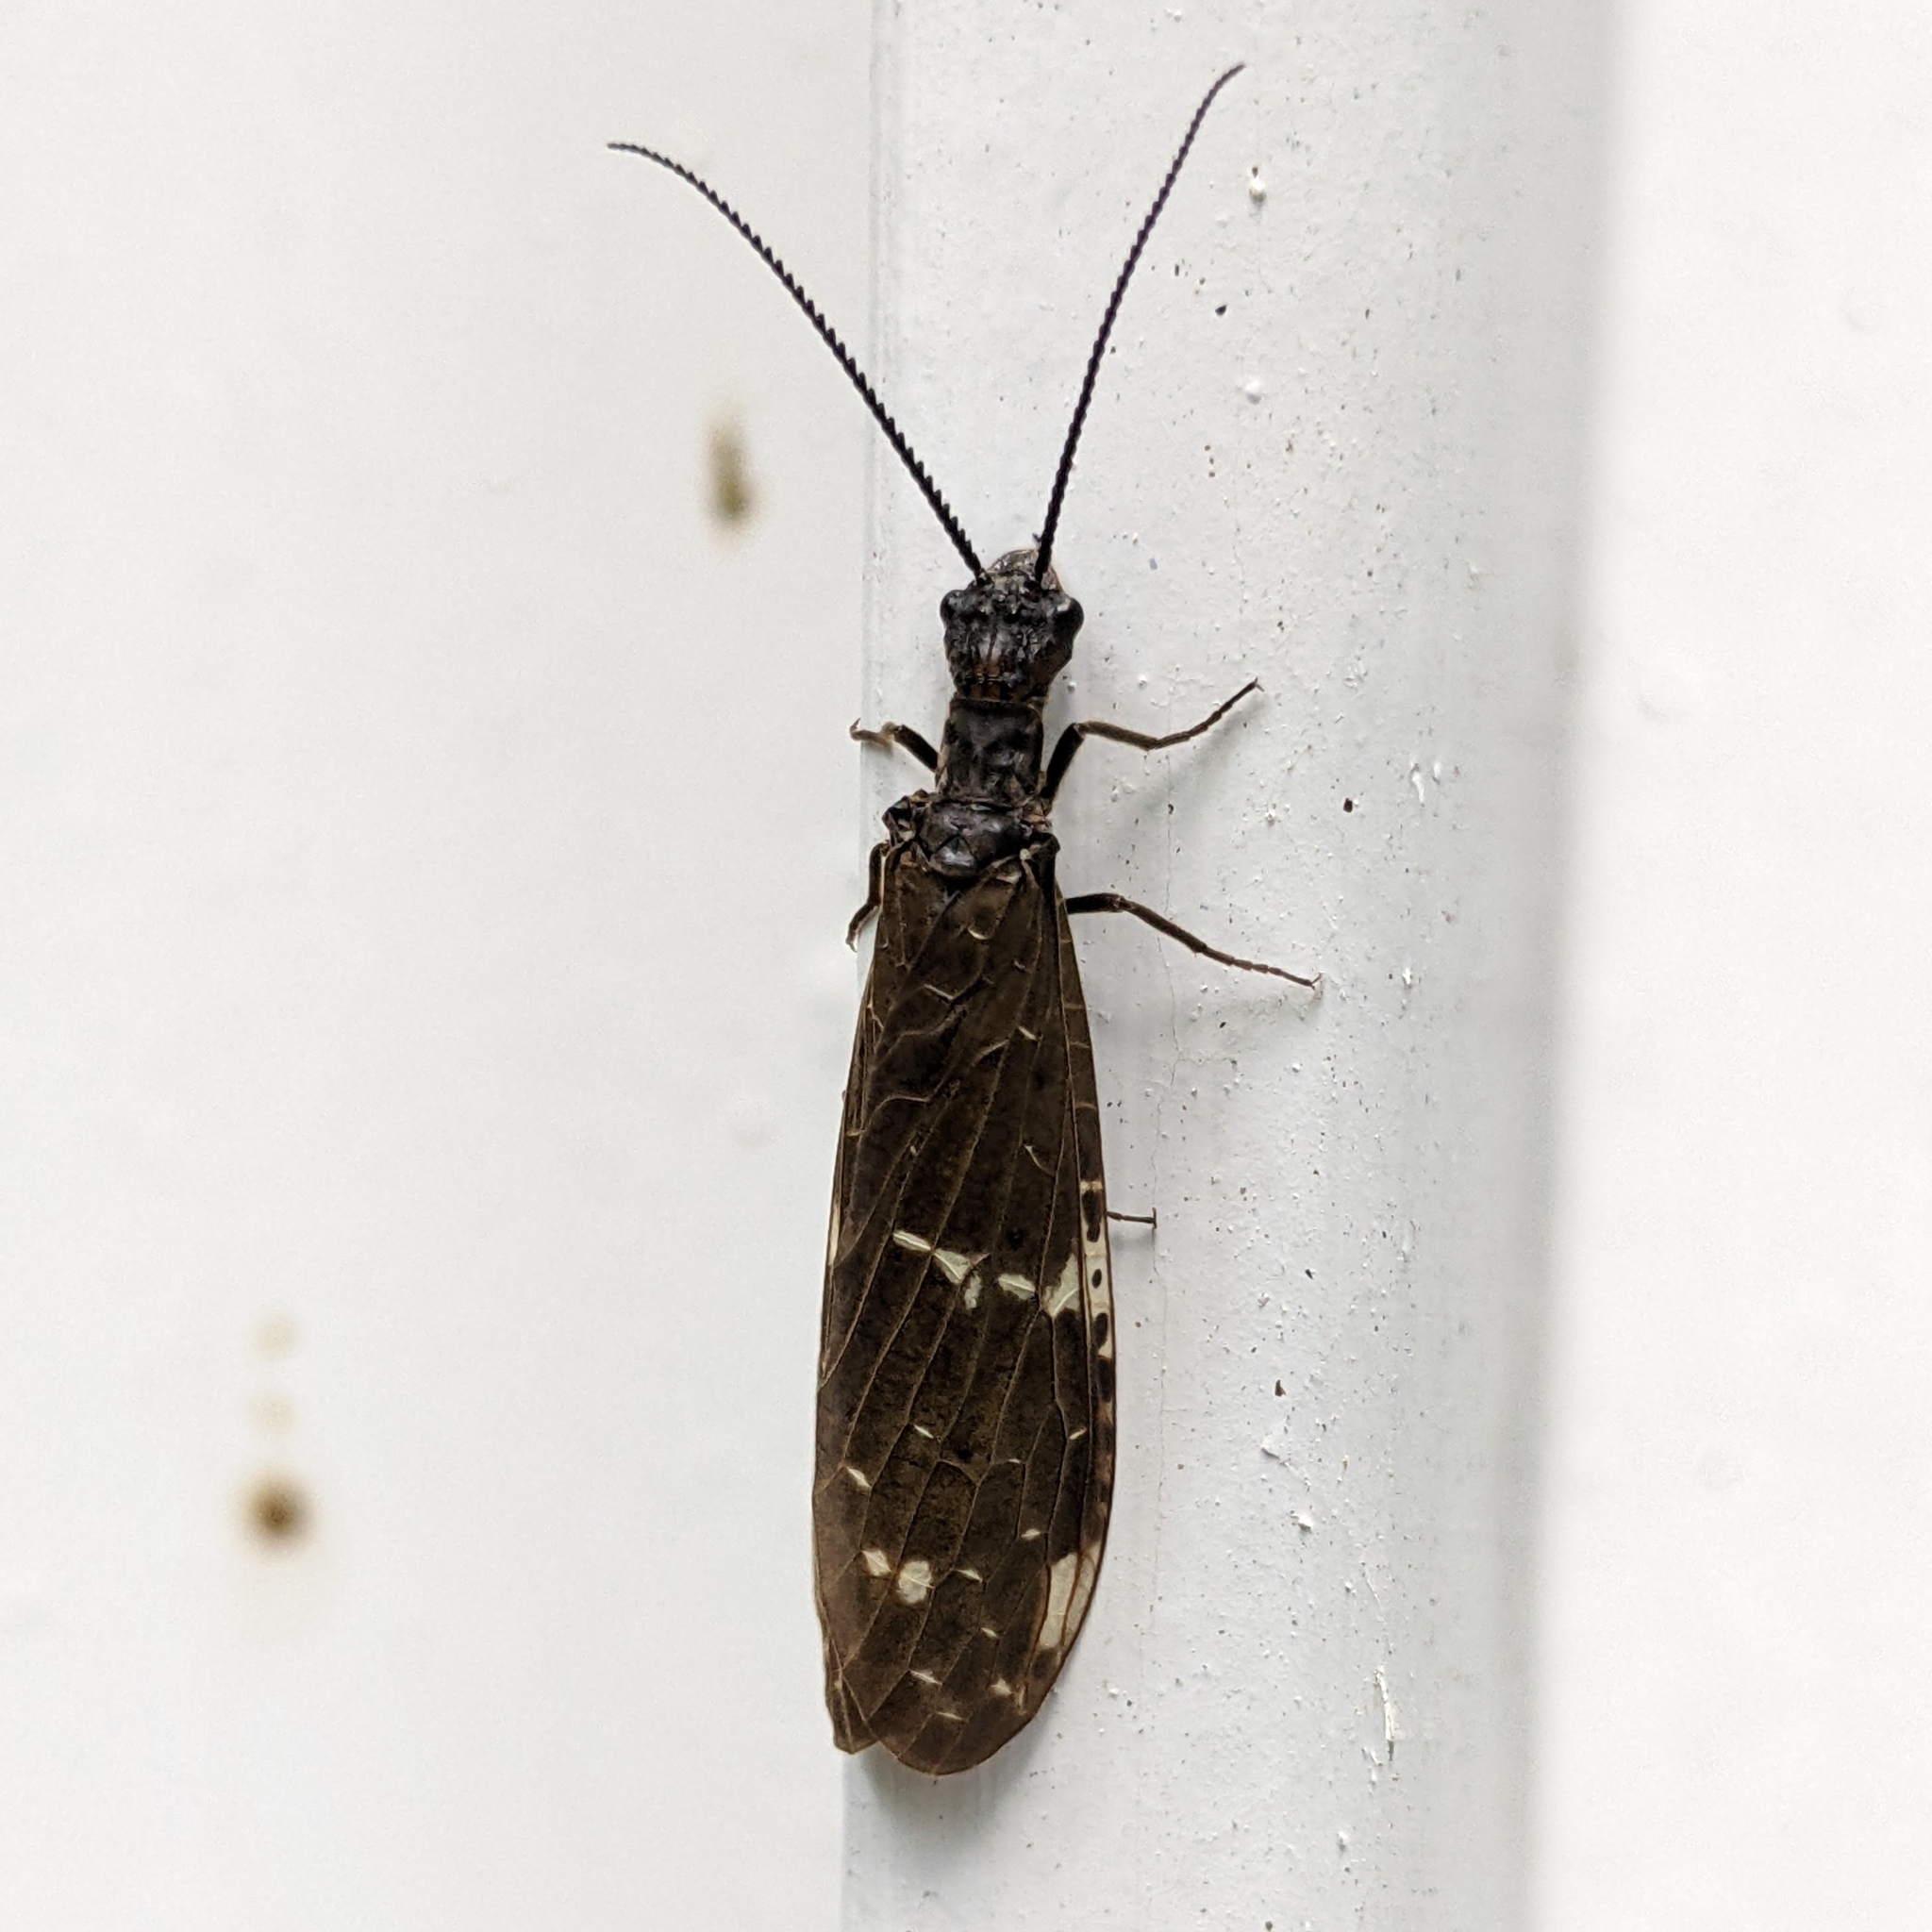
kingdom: Animalia
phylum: Arthropoda
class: Insecta
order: Megaloptera
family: Corydalidae
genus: Nigronia
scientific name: Nigronia serricornis
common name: Serrate dark fishfly
